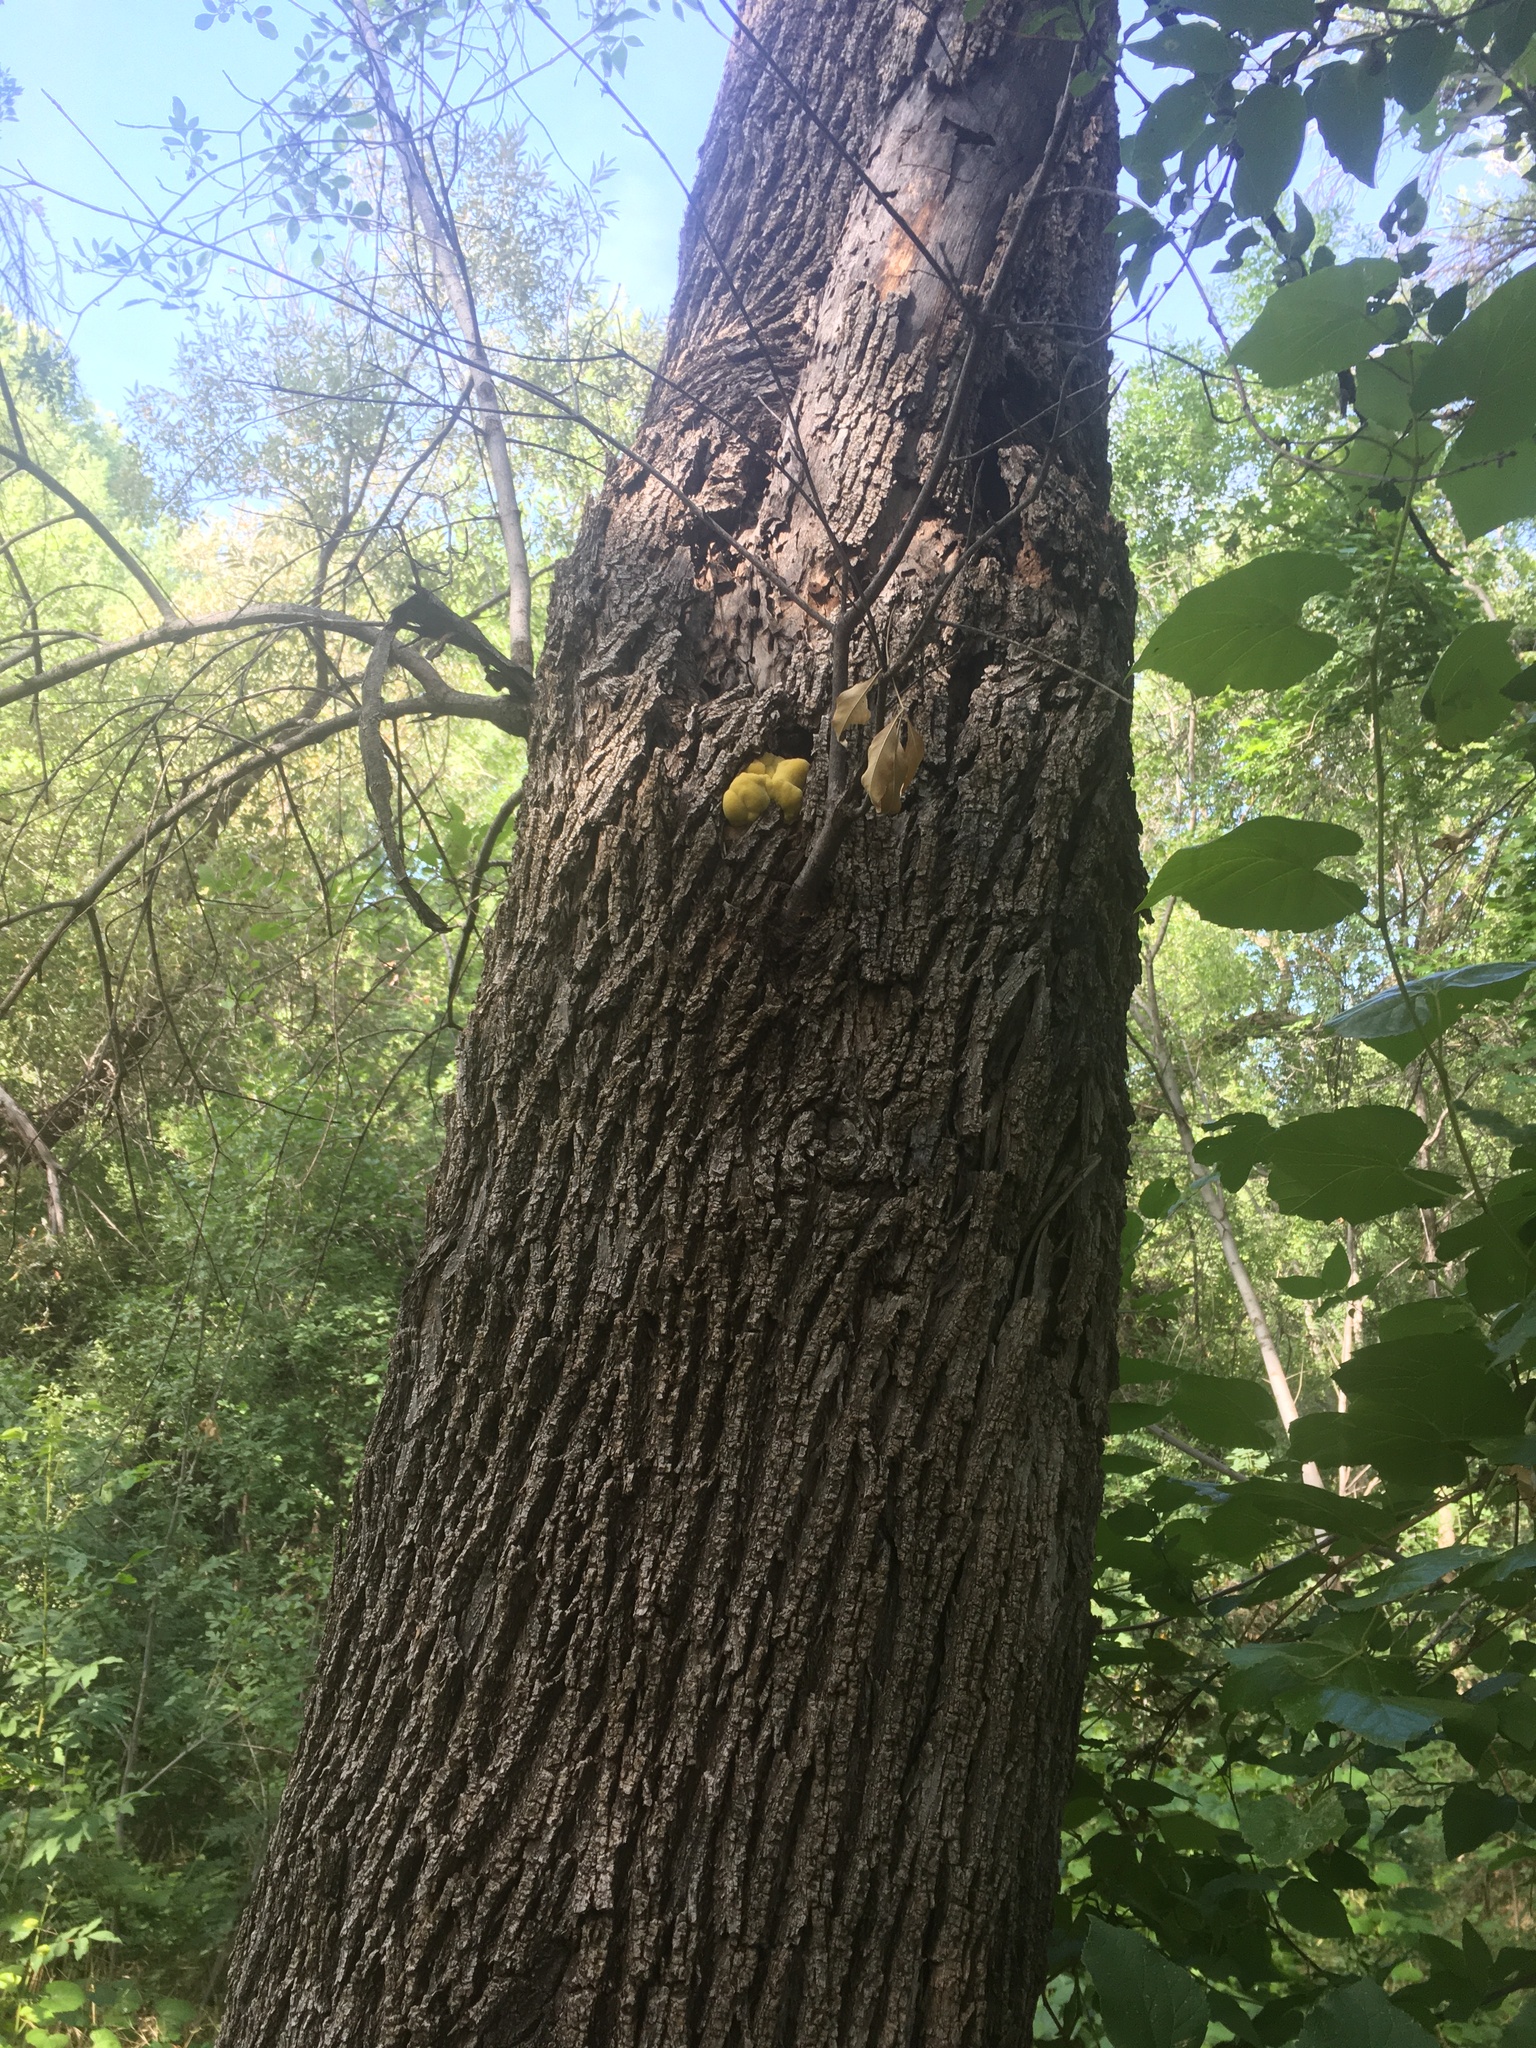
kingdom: Fungi
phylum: Basidiomycota
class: Agaricomycetes
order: Polyporales
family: Laetiporaceae
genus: Laetiporus
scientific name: Laetiporus gilbertsonii
